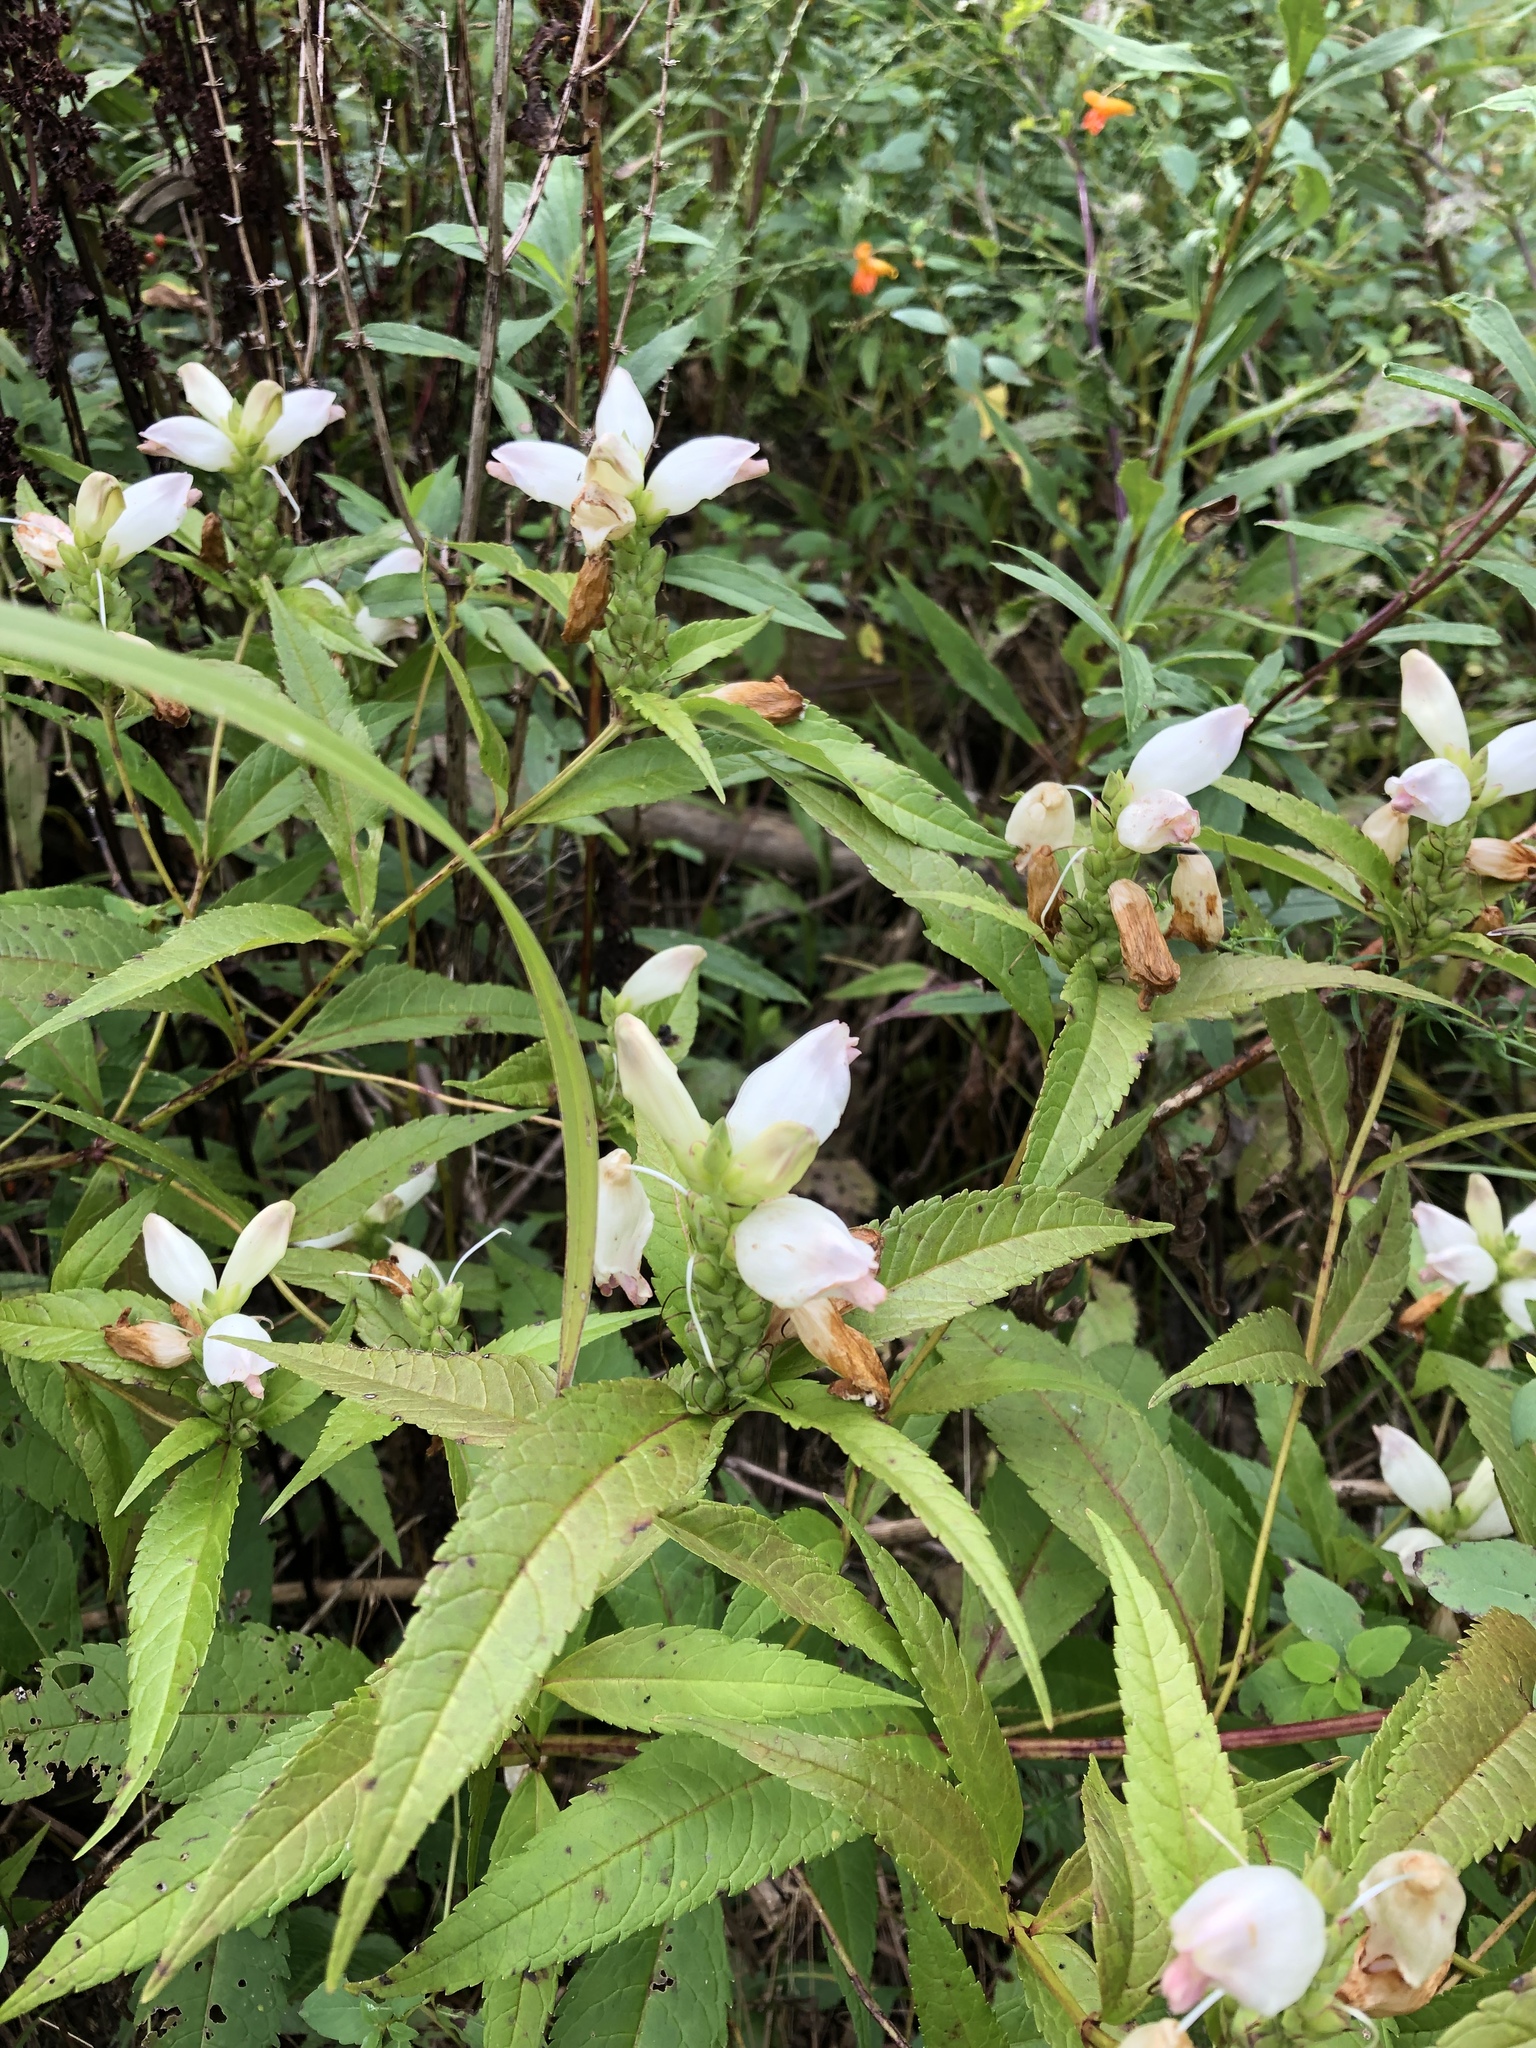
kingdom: Plantae
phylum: Tracheophyta
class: Magnoliopsida
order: Lamiales
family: Plantaginaceae
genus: Chelone
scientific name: Chelone glabra
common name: Snakehead
